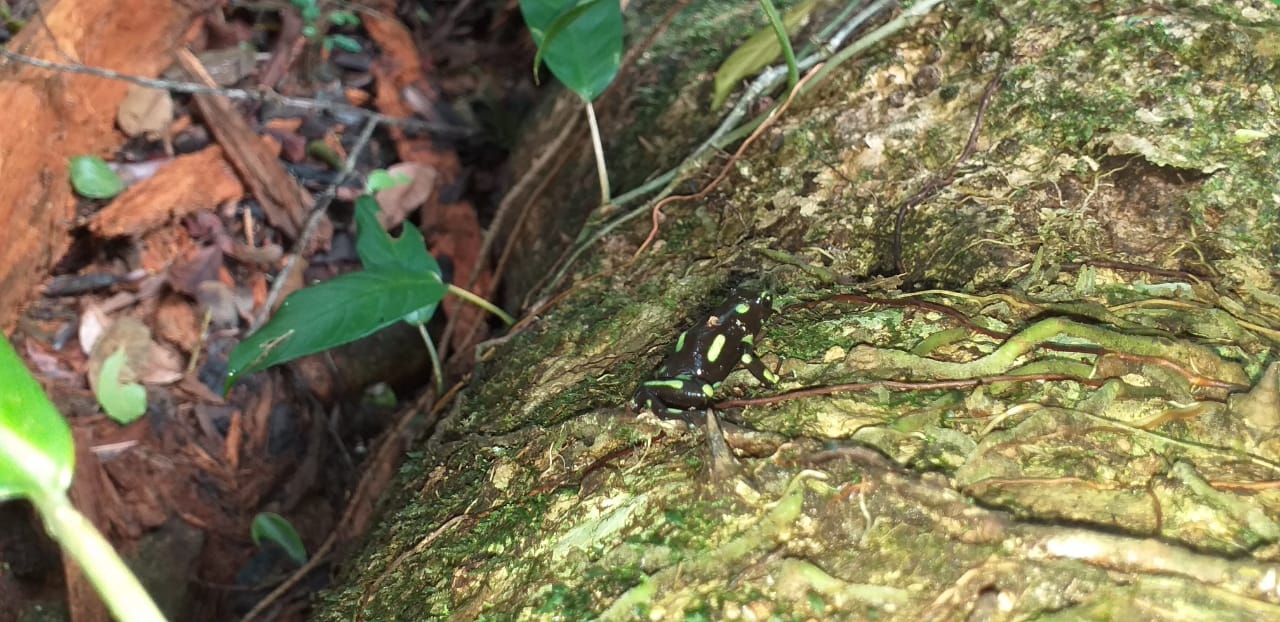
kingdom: Animalia
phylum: Chordata
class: Amphibia
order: Anura
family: Dendrobatidae
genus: Dendrobates
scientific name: Dendrobates auratus
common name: Green and black poison dart frog
